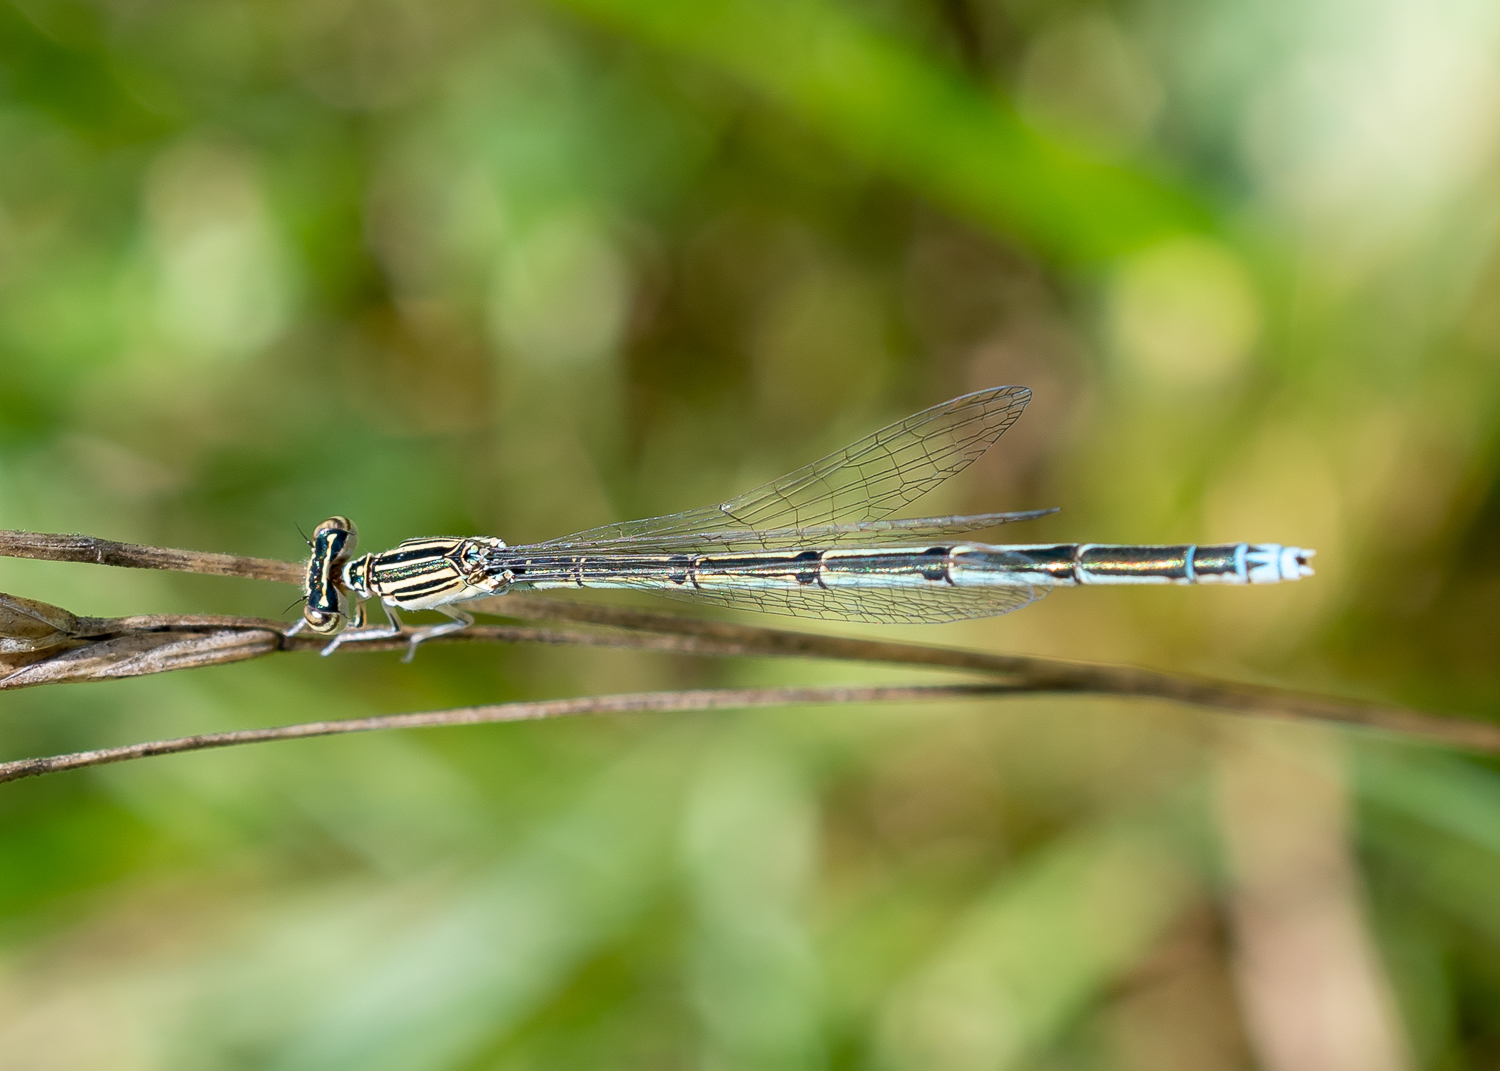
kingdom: Animalia
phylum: Arthropoda
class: Insecta
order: Odonata
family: Coenagrionidae
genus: Enallagma
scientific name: Enallagma basidens
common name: Double-striped bluet
